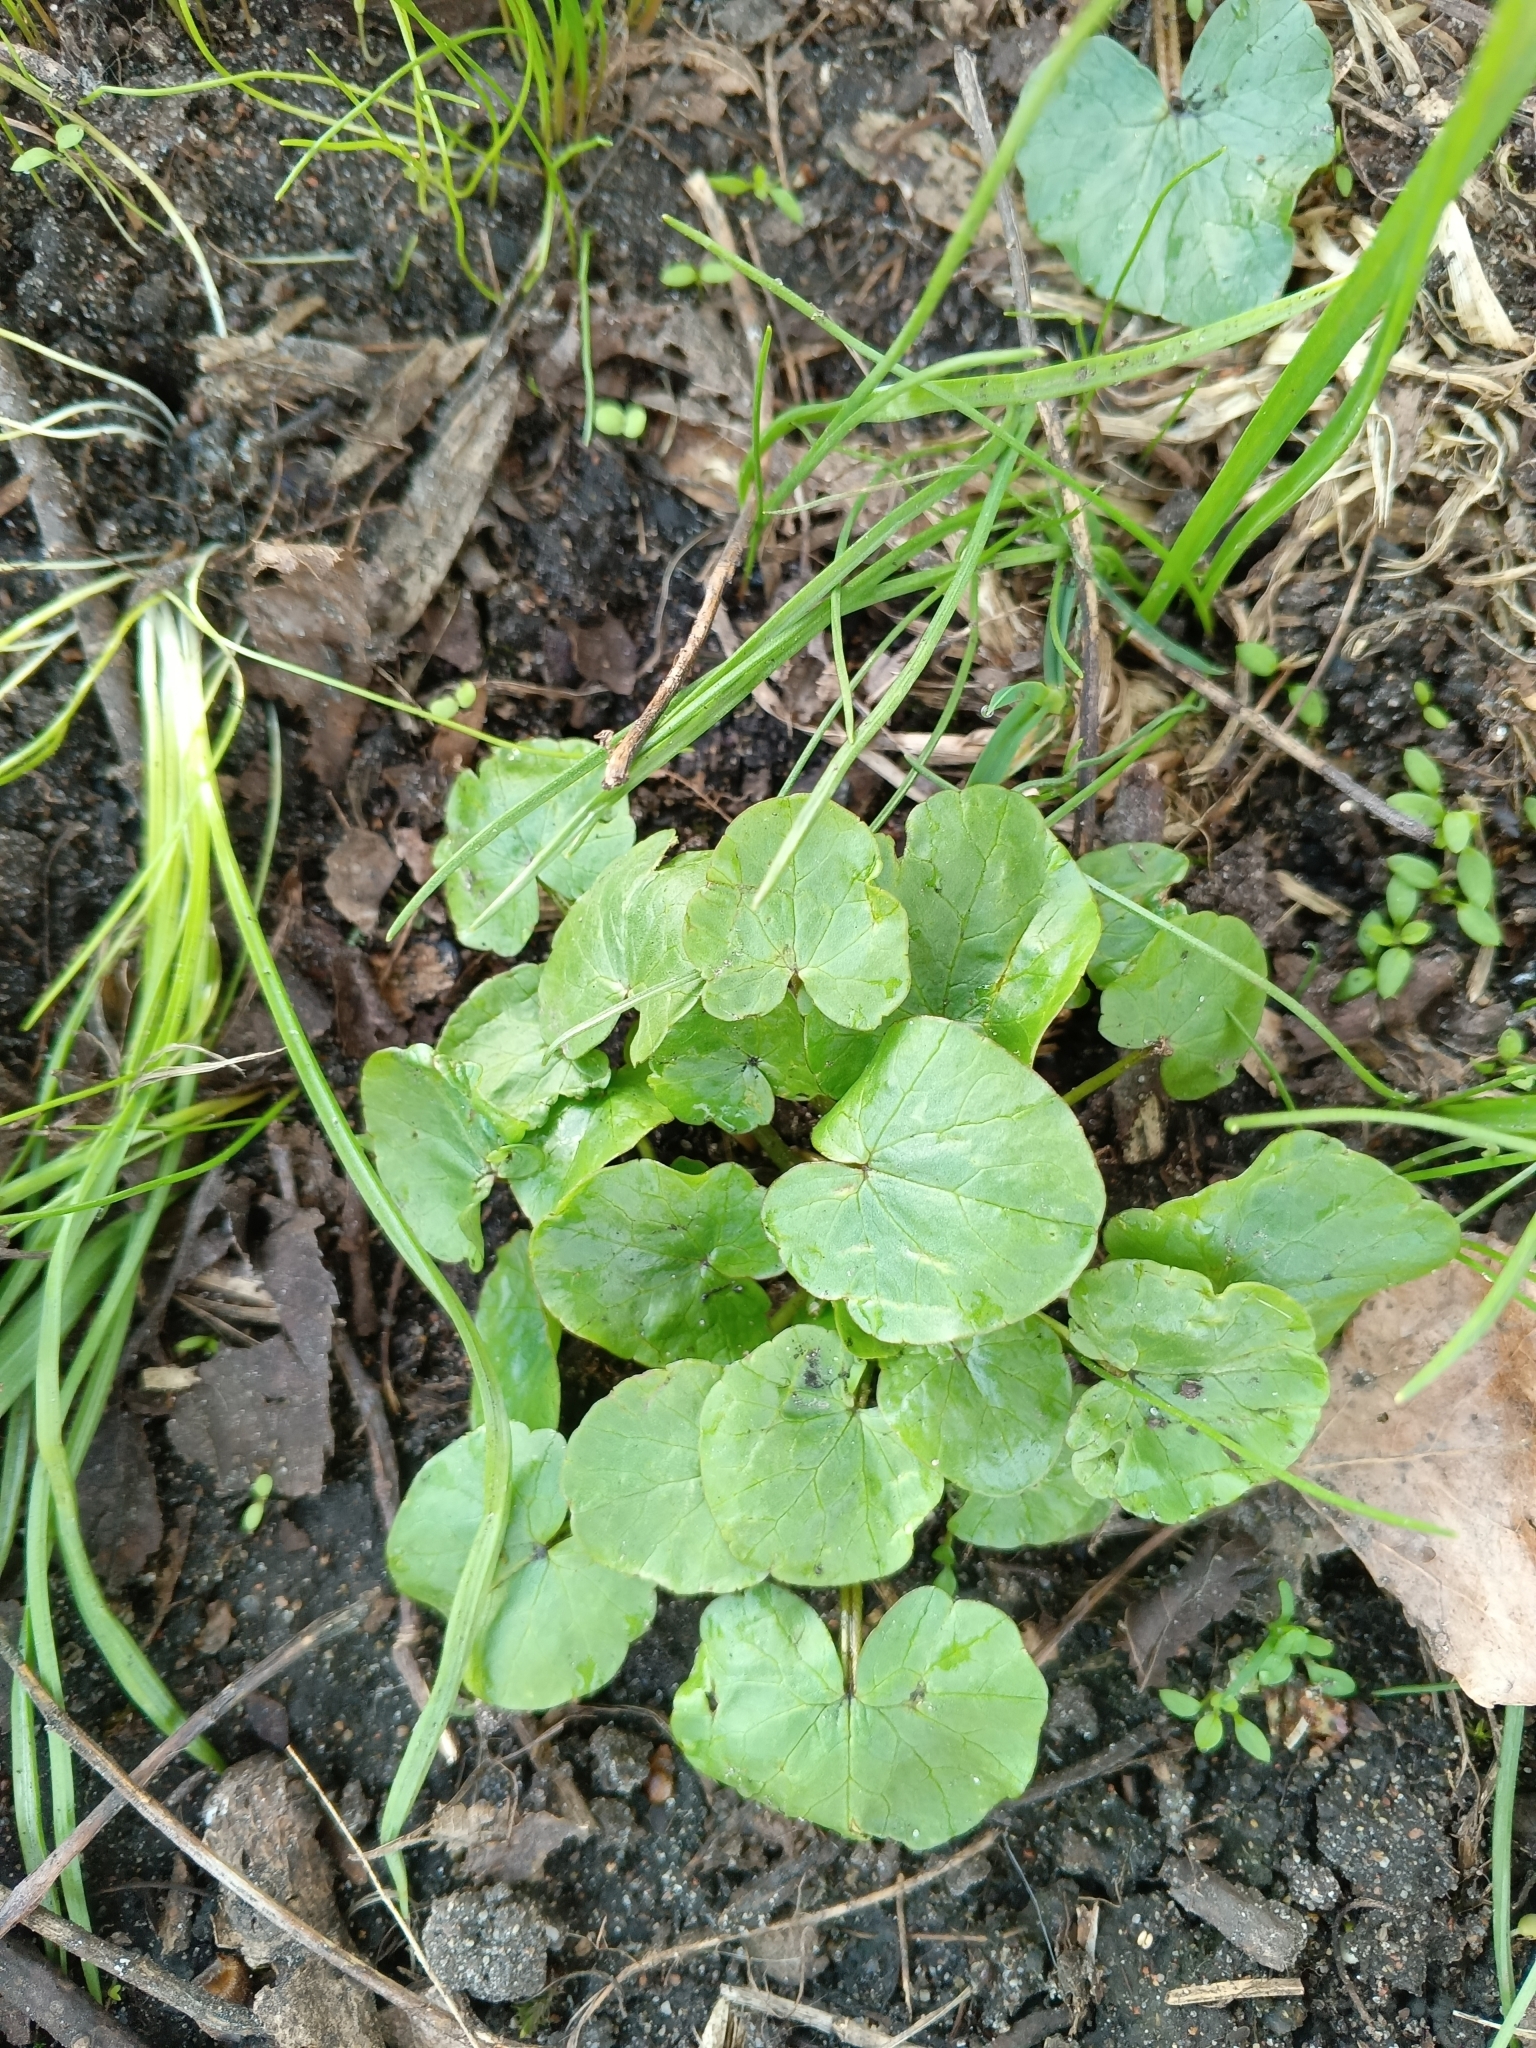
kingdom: Plantae
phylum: Tracheophyta
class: Magnoliopsida
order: Ranunculales
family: Ranunculaceae
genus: Ficaria
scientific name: Ficaria verna
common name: Lesser celandine
